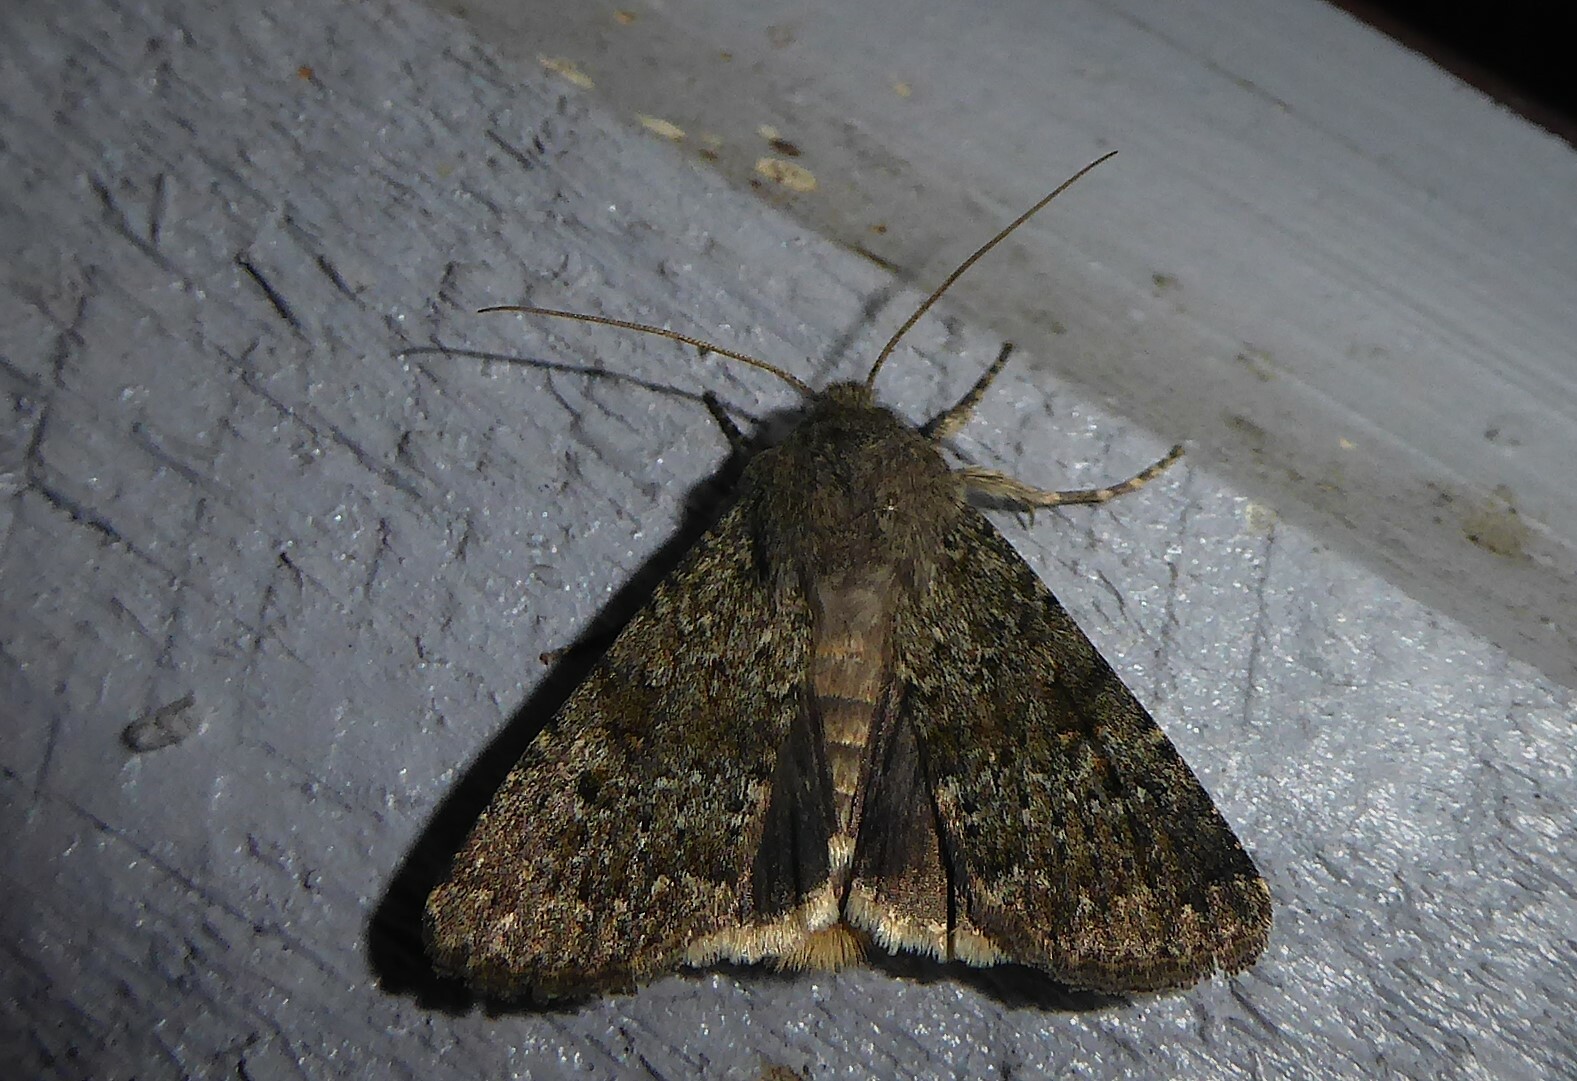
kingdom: Animalia
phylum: Arthropoda
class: Insecta
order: Lepidoptera
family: Noctuidae
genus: Ichneutica
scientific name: Ichneutica moderata
